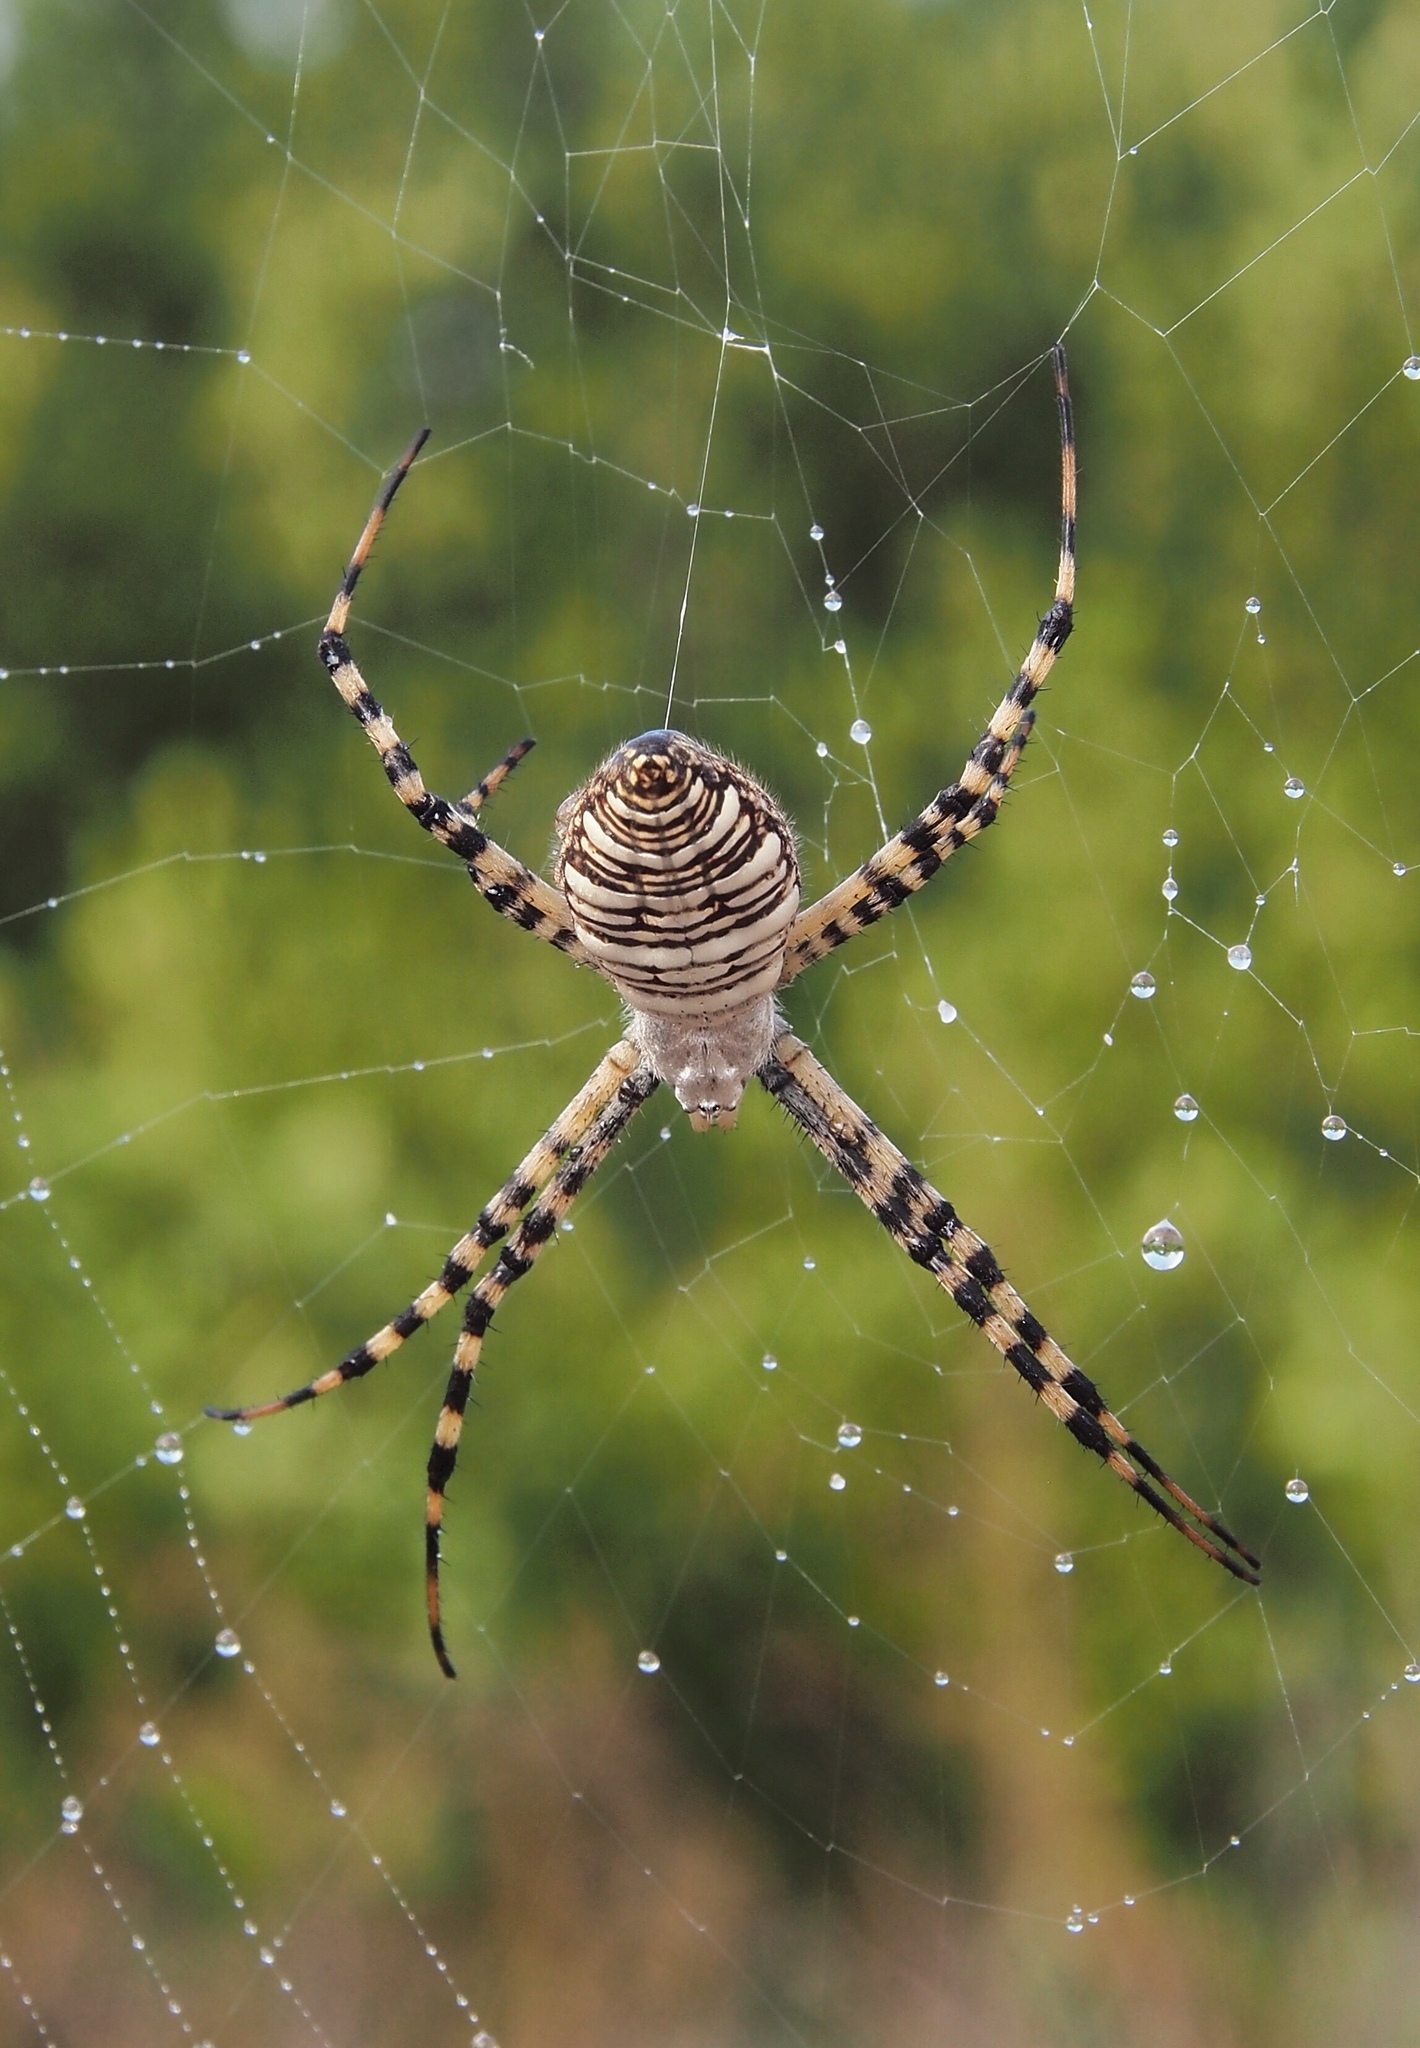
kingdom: Animalia
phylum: Arthropoda
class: Arachnida
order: Araneae
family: Araneidae
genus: Argiope
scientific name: Argiope trifasciata
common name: Banded garden spider
